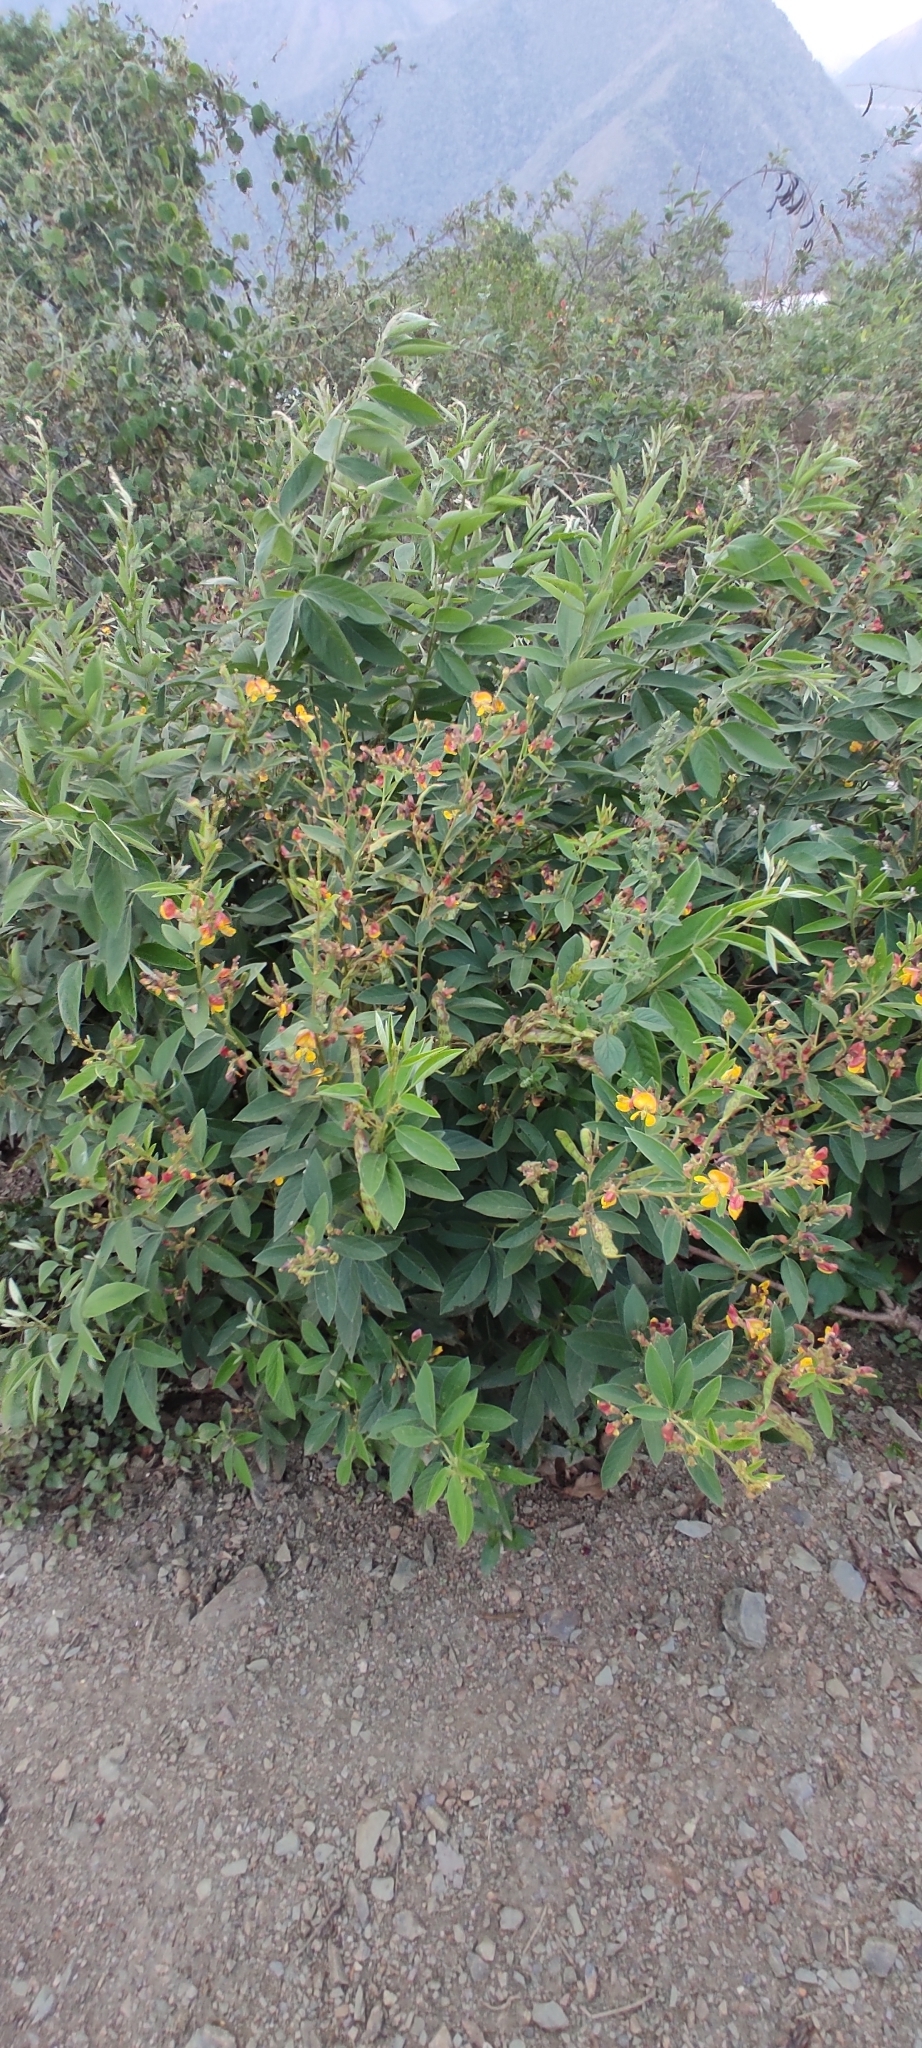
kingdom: Plantae
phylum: Tracheophyta
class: Magnoliopsida
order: Fabales
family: Fabaceae
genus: Cajanus
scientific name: Cajanus cajan
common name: Pigeonpea
